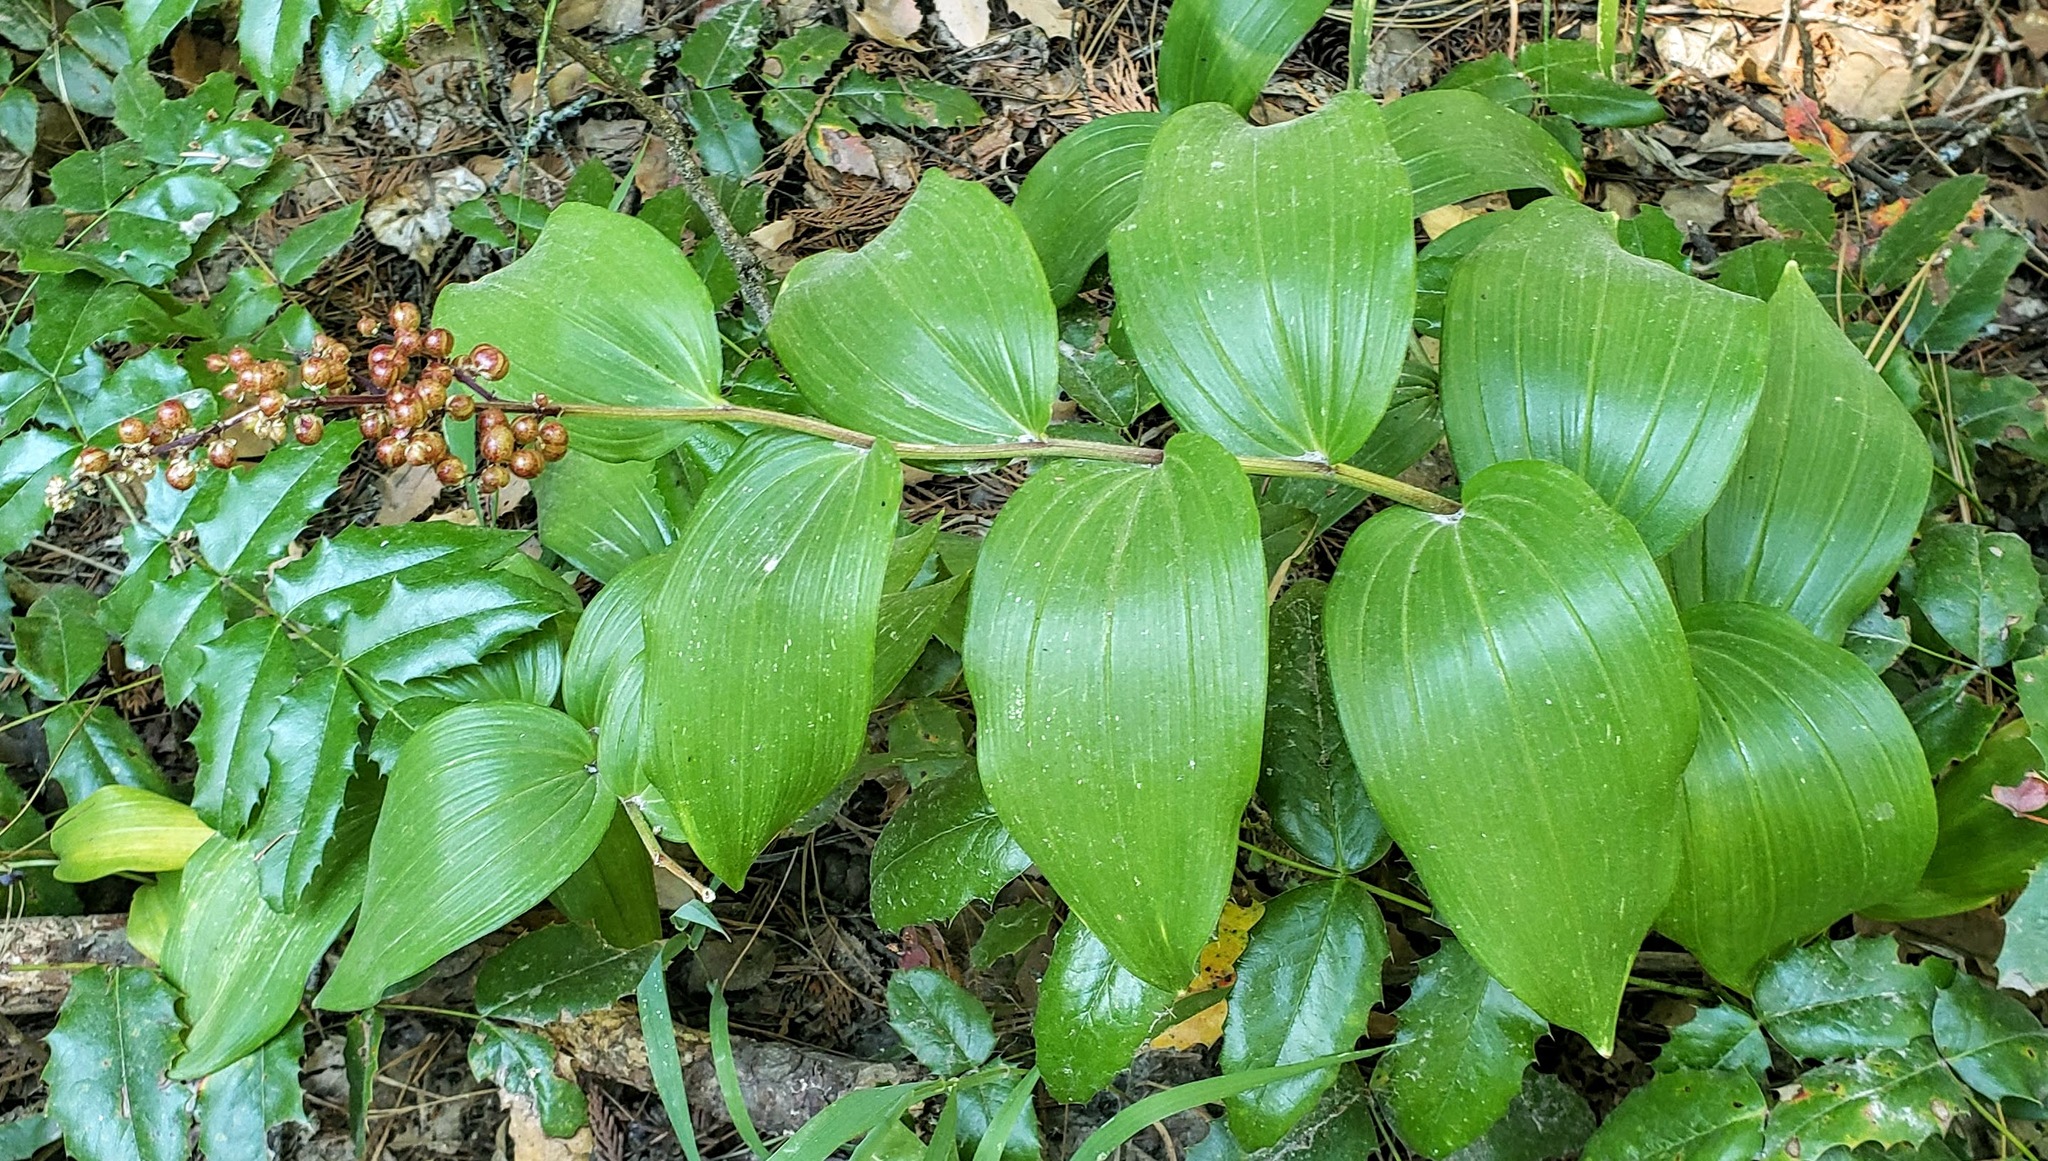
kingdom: Plantae
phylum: Tracheophyta
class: Liliopsida
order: Asparagales
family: Asparagaceae
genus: Maianthemum
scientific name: Maianthemum racemosum
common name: False spikenard
